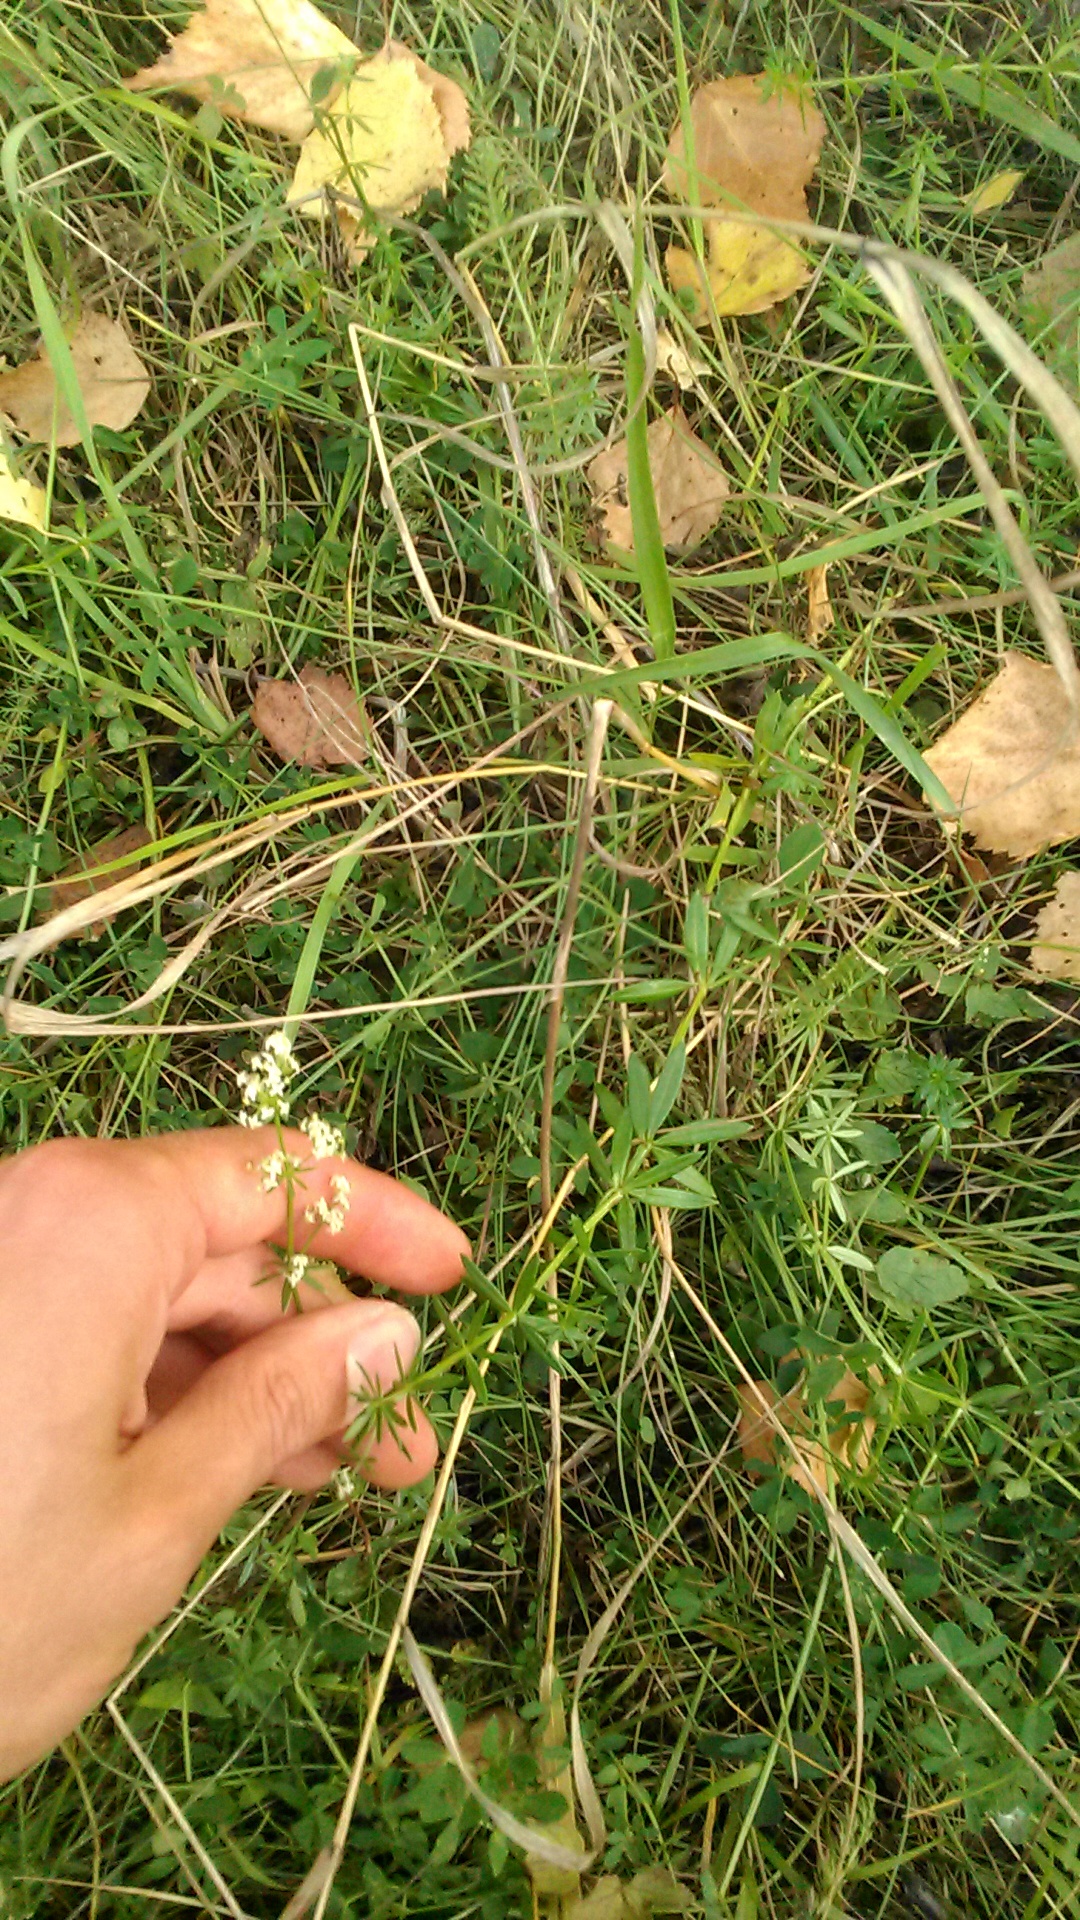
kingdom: Plantae
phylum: Tracheophyta
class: Magnoliopsida
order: Gentianales
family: Rubiaceae
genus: Galium
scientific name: Galium mollugo
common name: Hedge bedstraw
